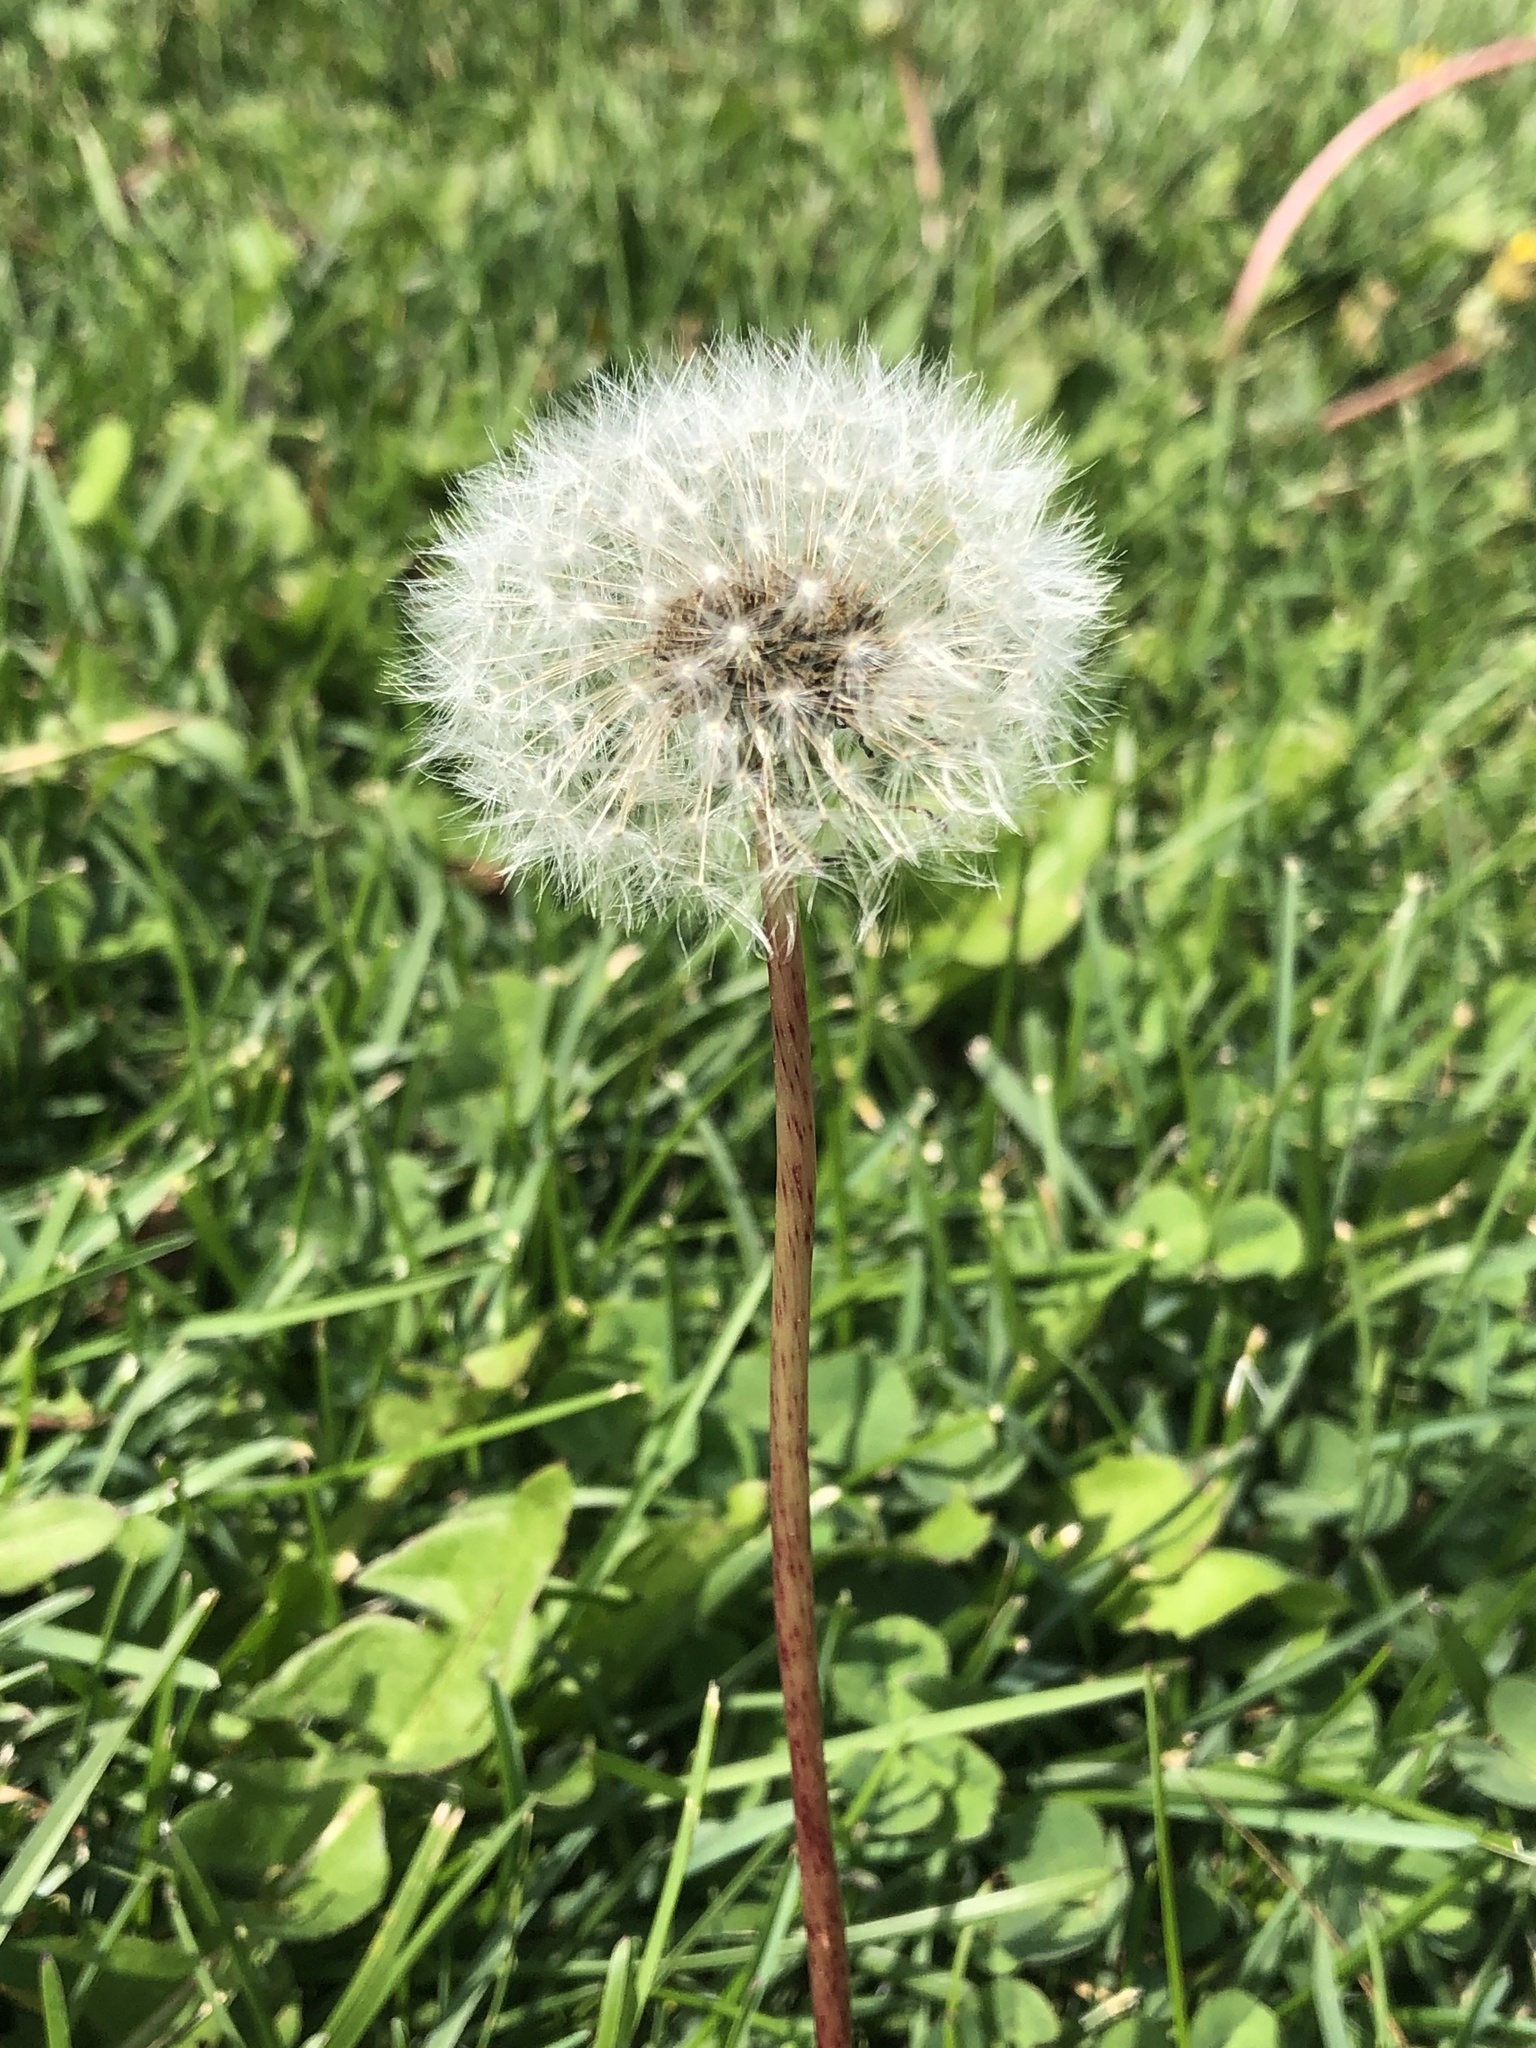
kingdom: Plantae
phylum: Tracheophyta
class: Magnoliopsida
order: Asterales
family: Asteraceae
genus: Taraxacum
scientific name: Taraxacum officinale
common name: Common dandelion
